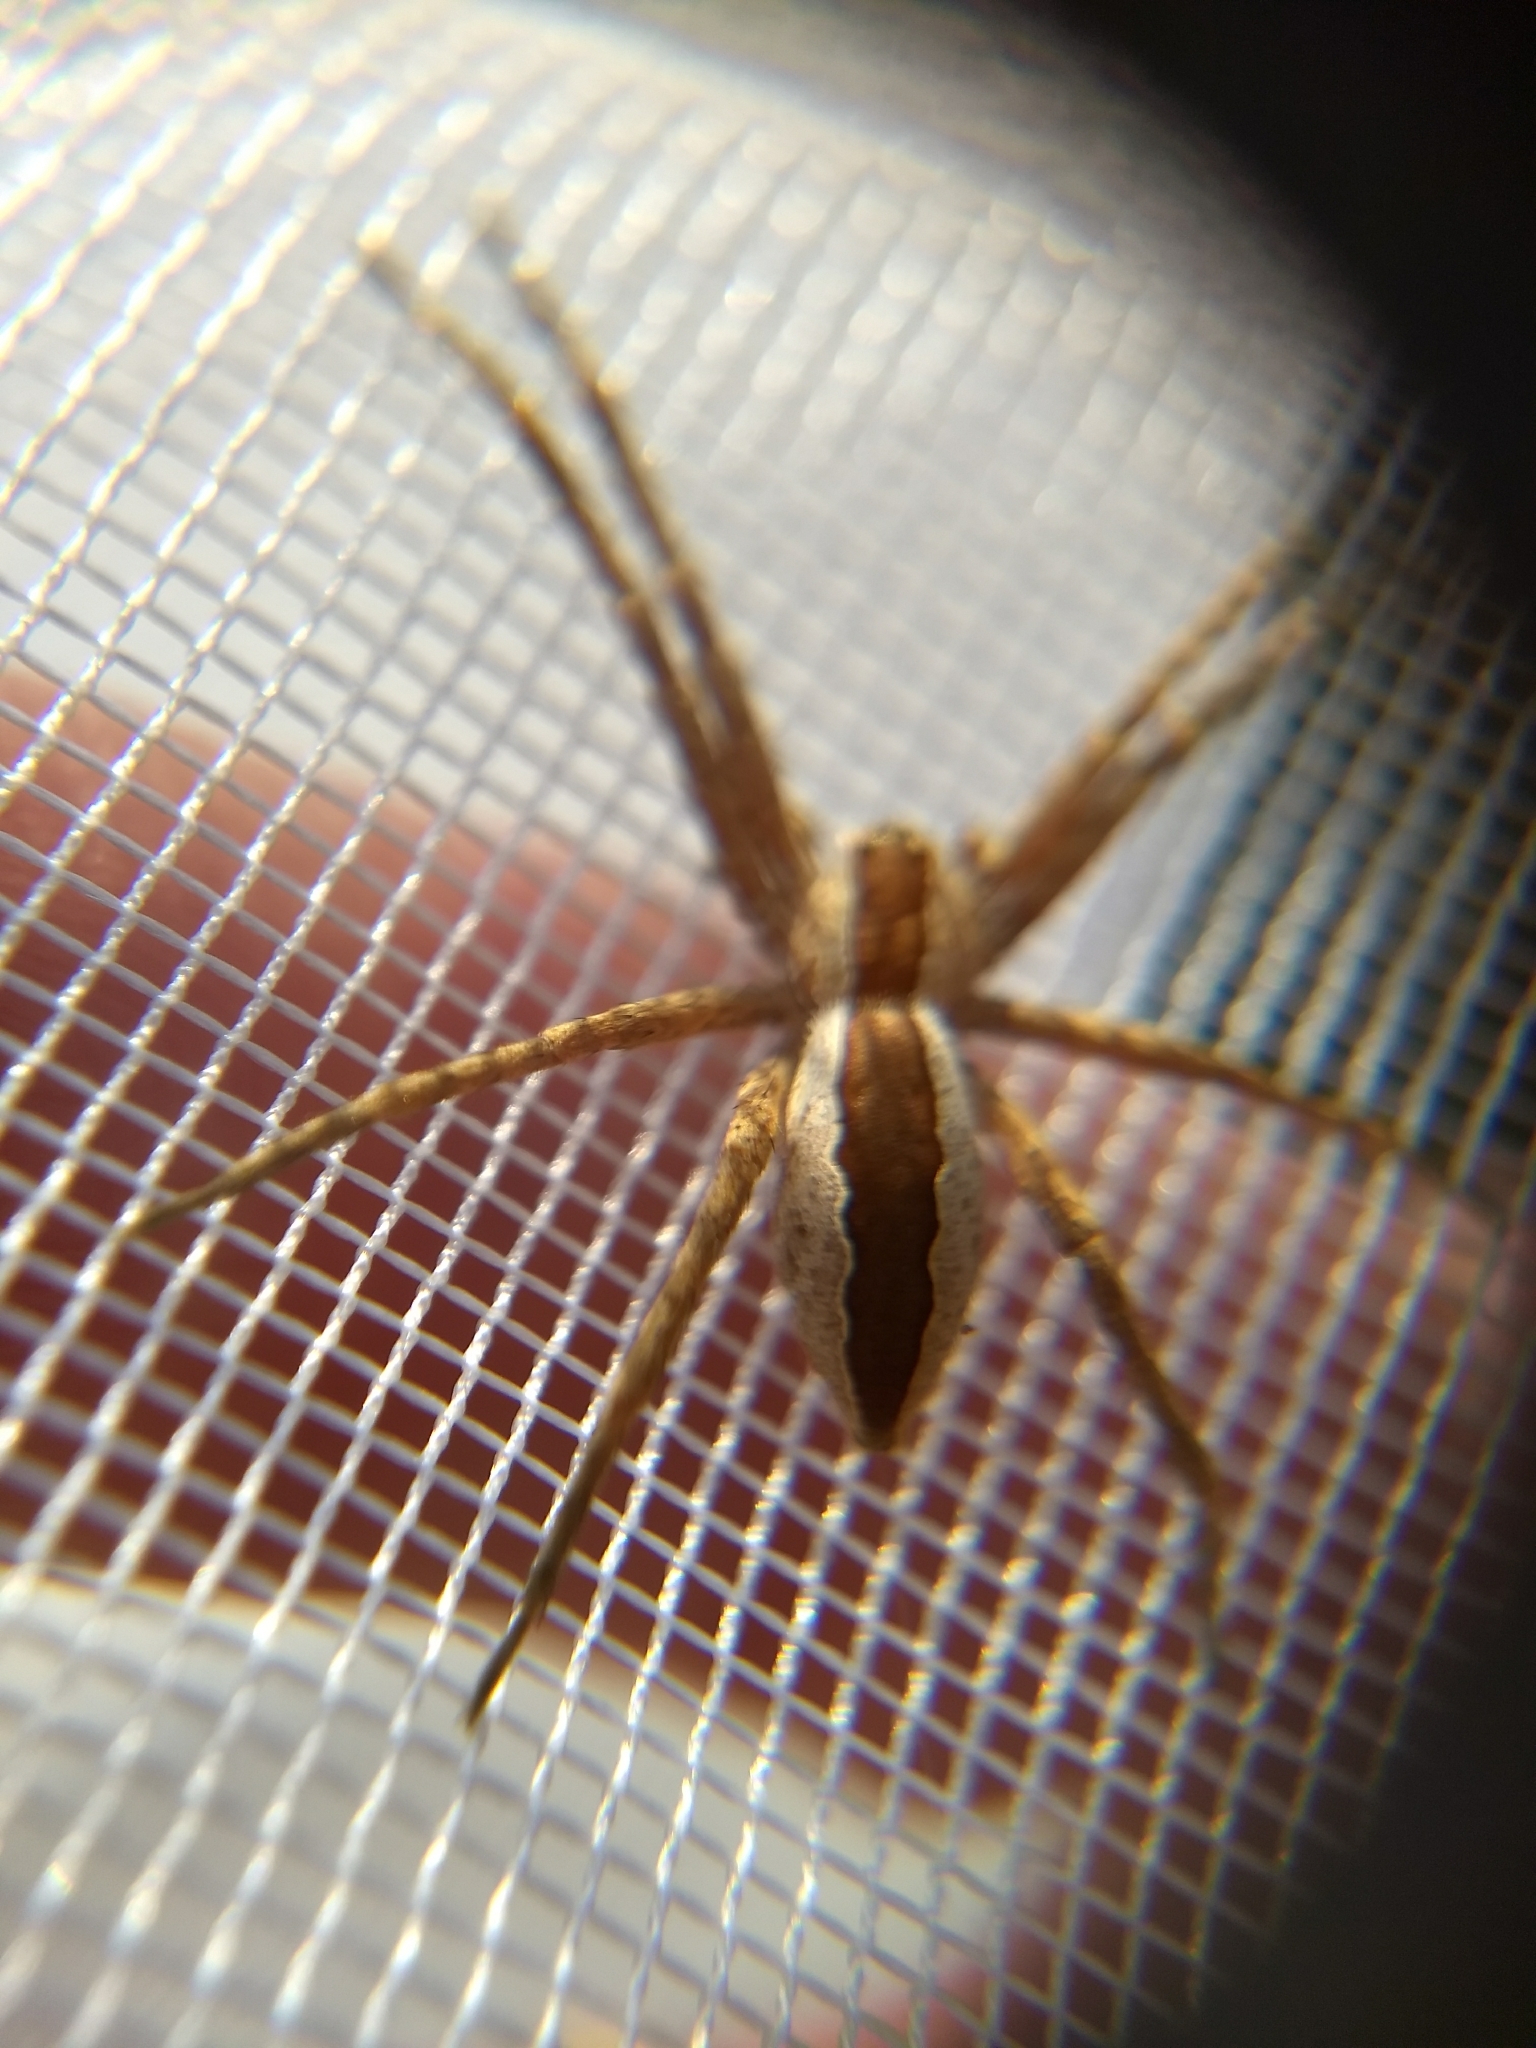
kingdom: Animalia
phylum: Arthropoda
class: Arachnida
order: Araneae
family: Pisauridae
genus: Pisaurina
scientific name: Pisaurina mira
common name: American nursery web spider
